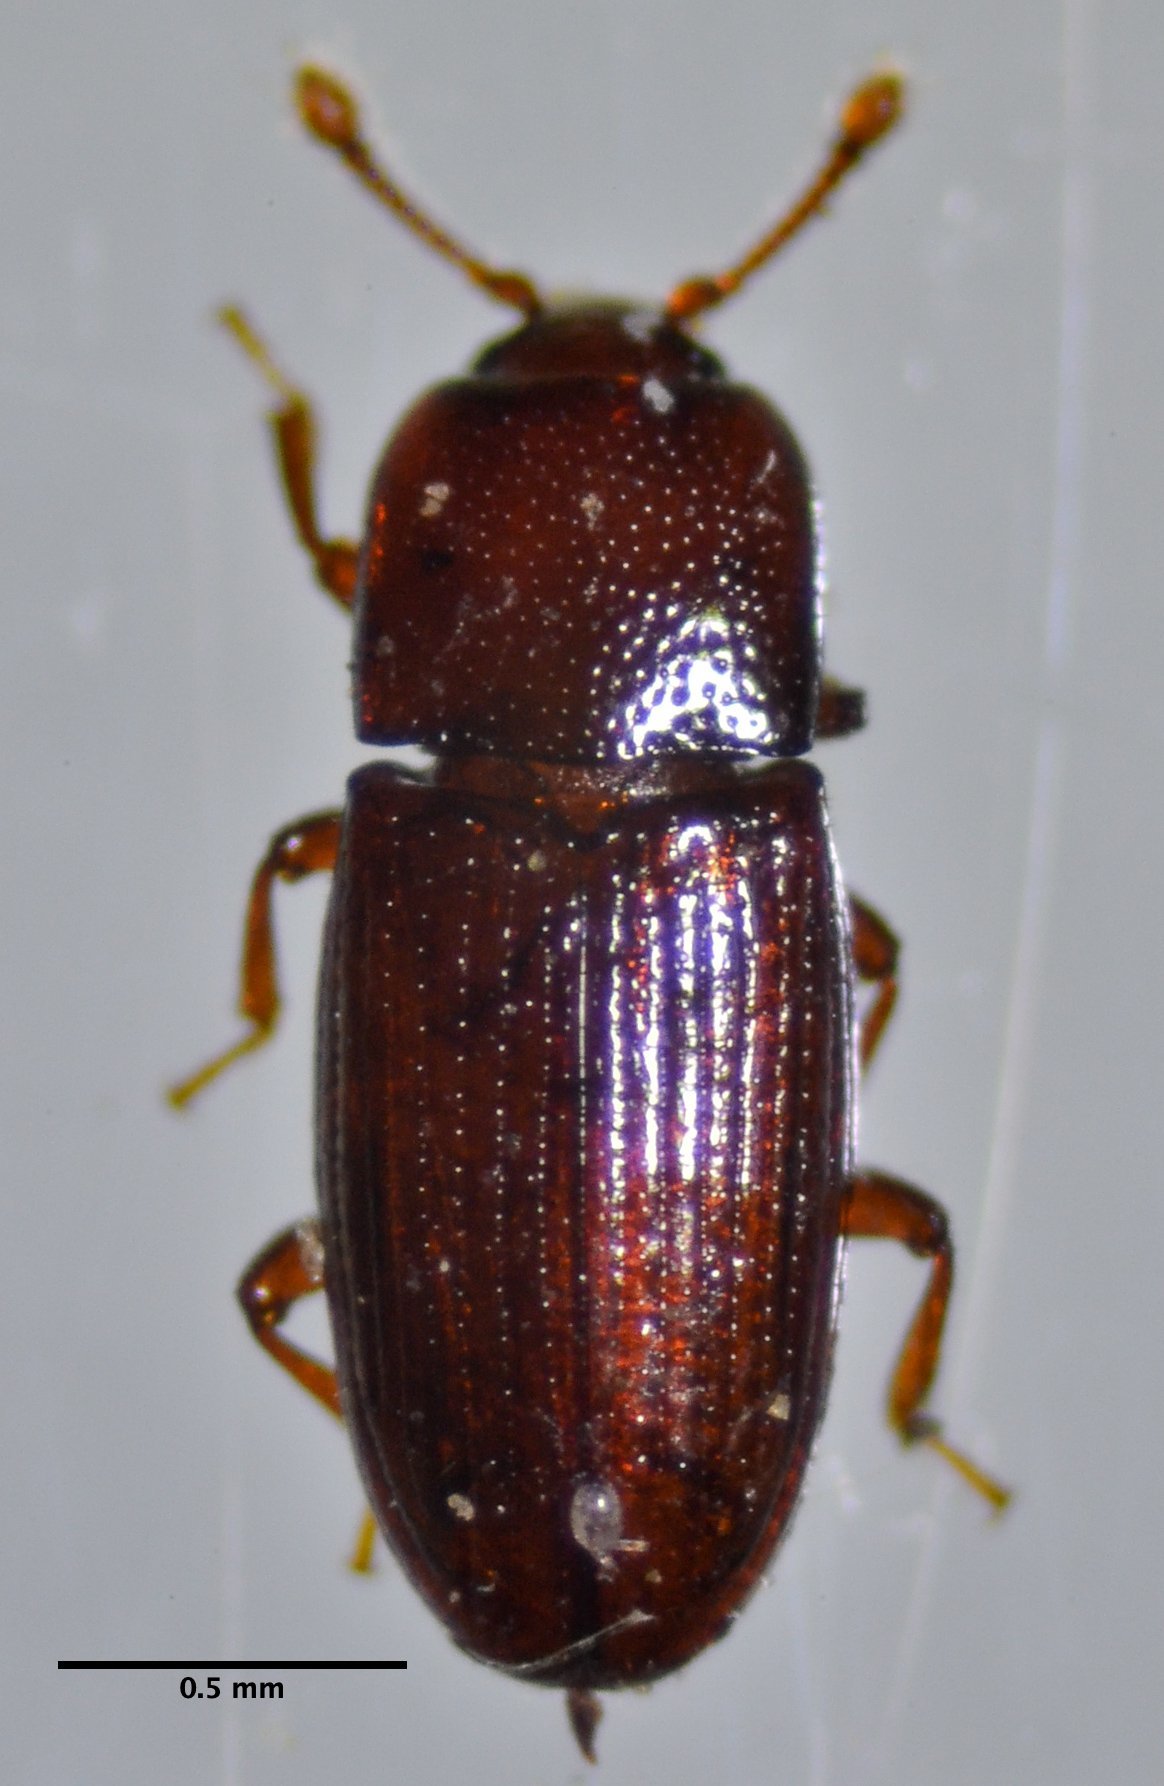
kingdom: Animalia
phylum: Arthropoda
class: Insecta
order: Coleoptera
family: Cerylonidae
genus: Cerylon
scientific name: Cerylon unicolor
